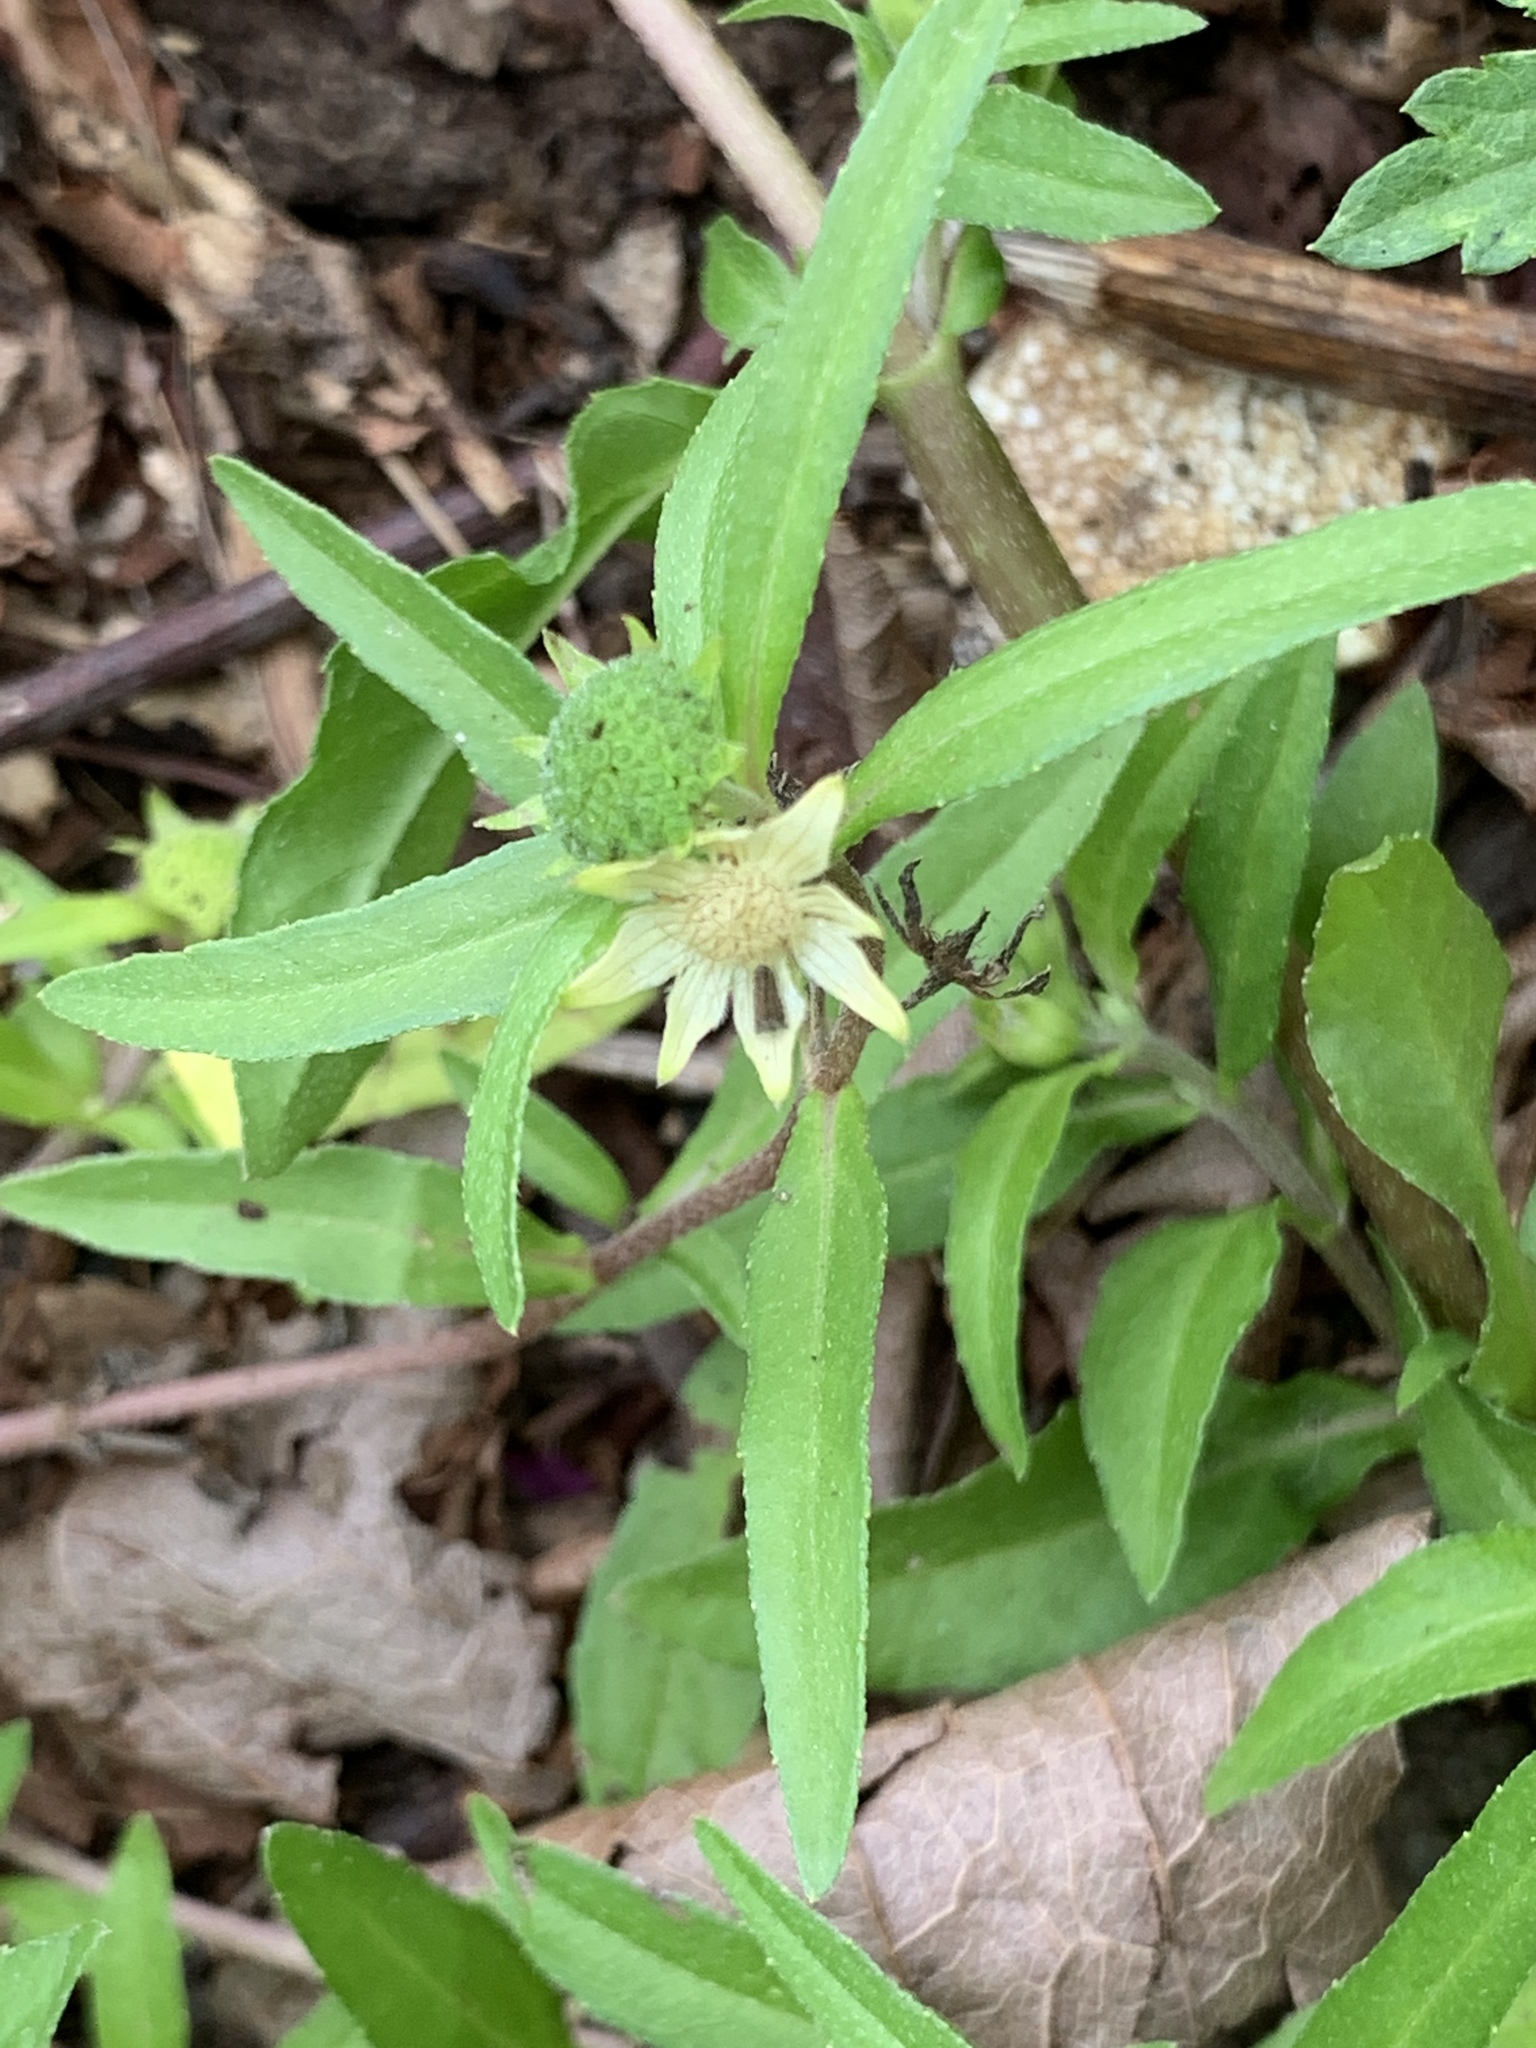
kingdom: Plantae
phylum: Tracheophyta
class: Magnoliopsida
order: Asterales
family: Asteraceae
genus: Eclipta
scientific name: Eclipta prostrata
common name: False daisy
